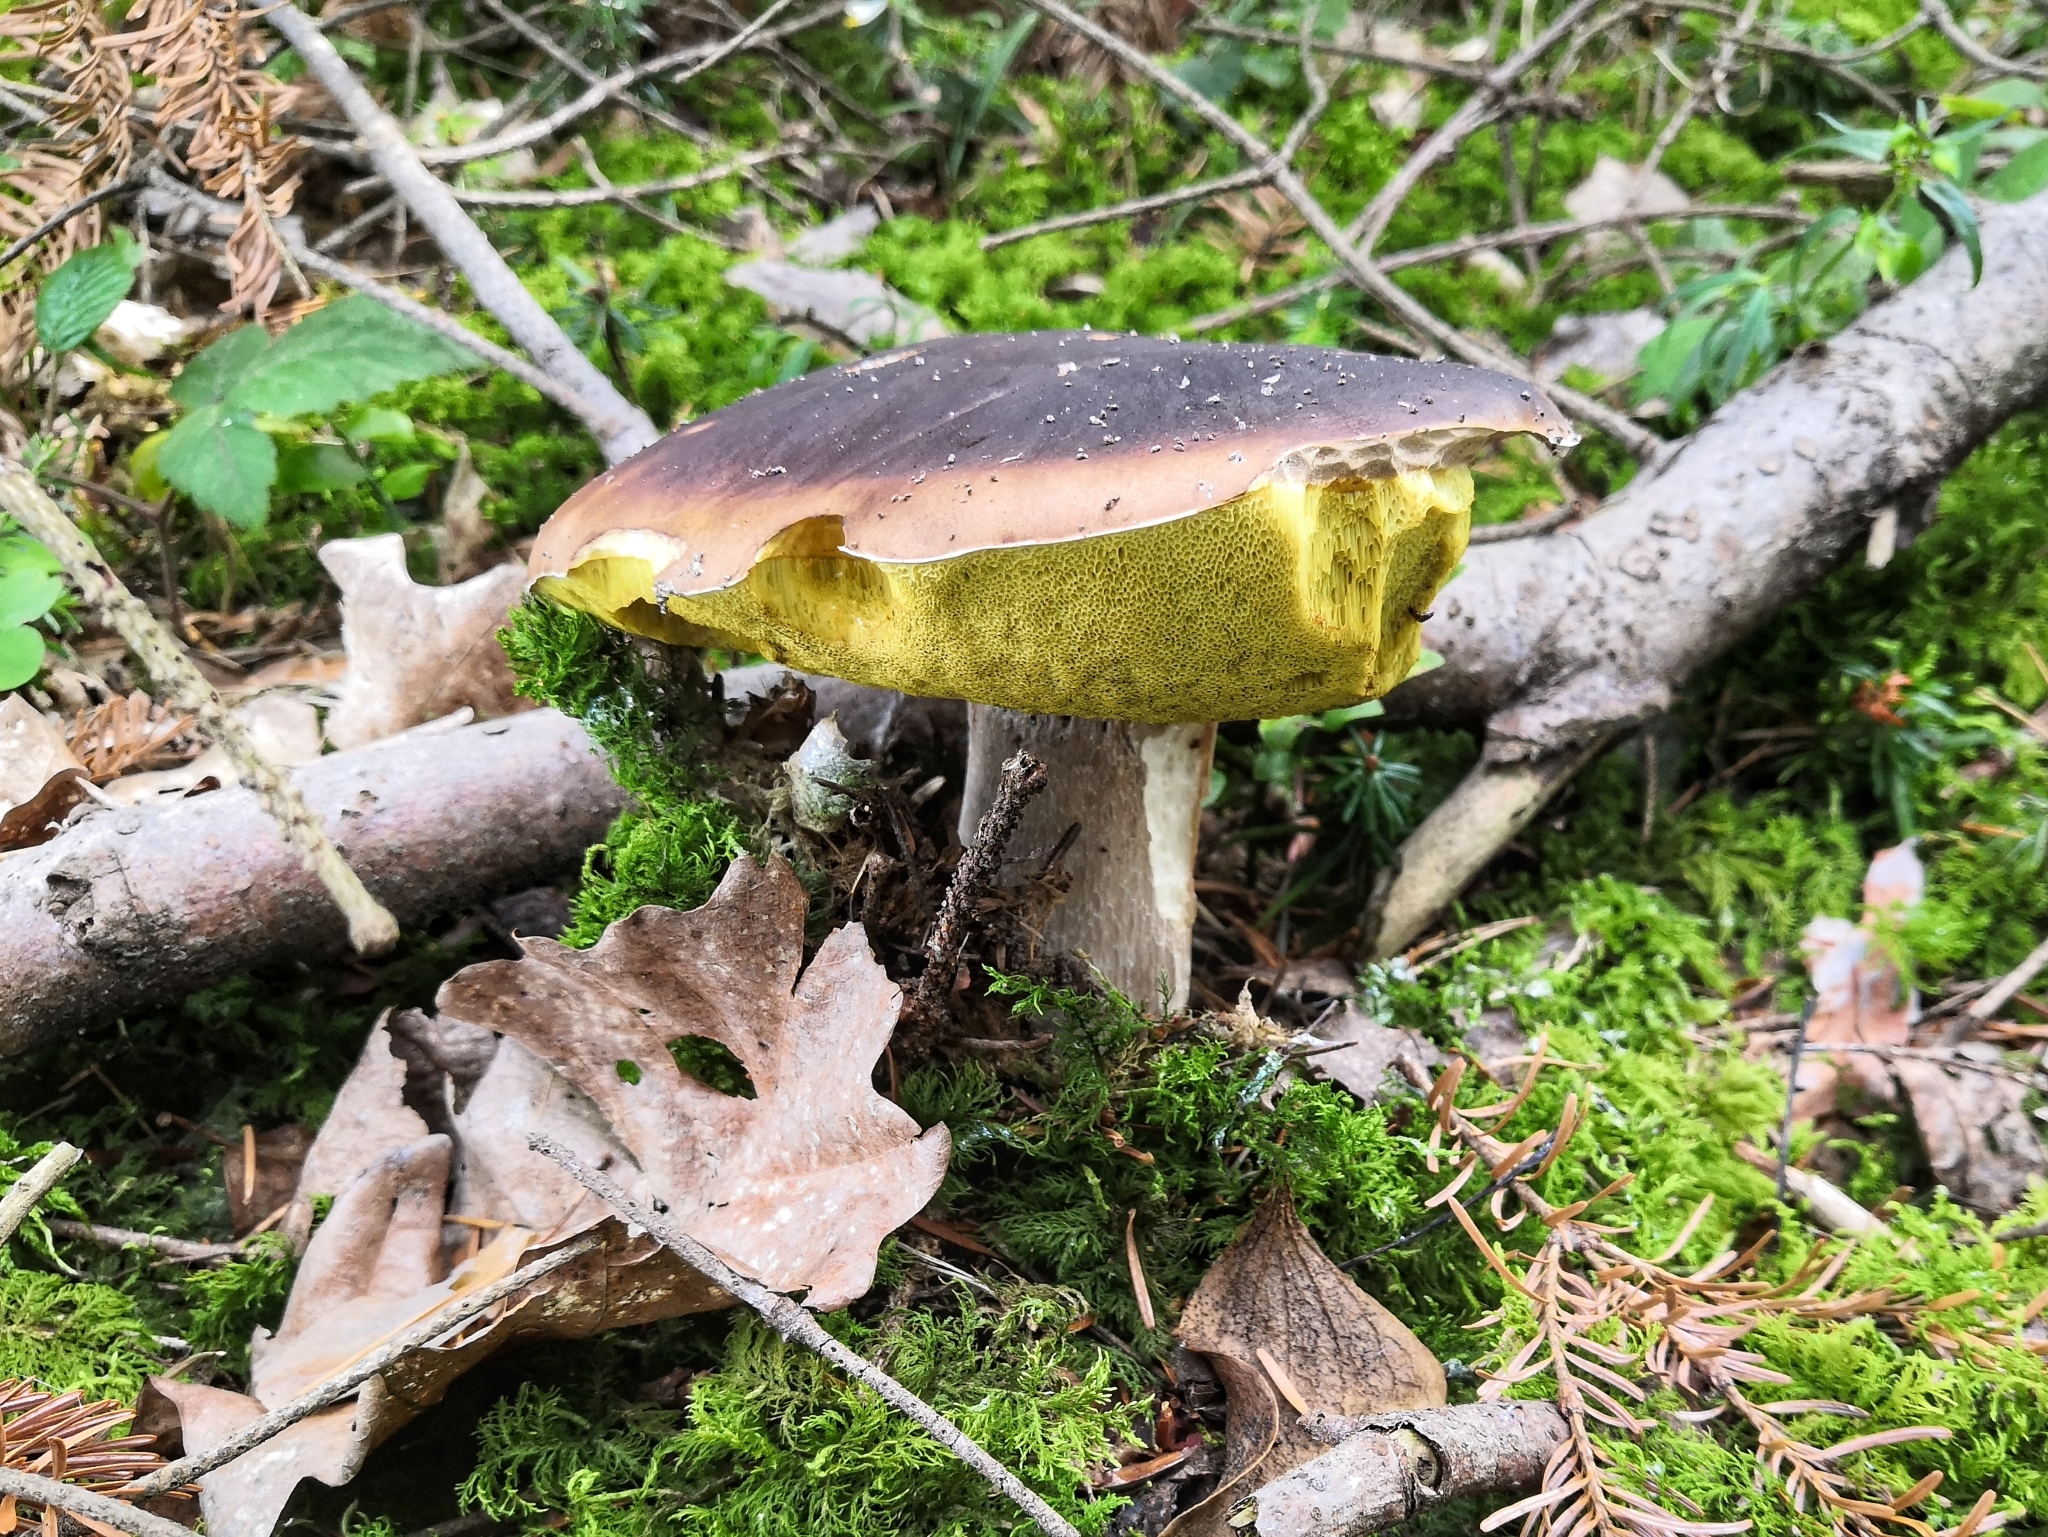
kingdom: Fungi
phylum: Basidiomycota
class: Agaricomycetes
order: Boletales
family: Boletaceae
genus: Boletus
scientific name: Boletus edulis
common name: Cep
